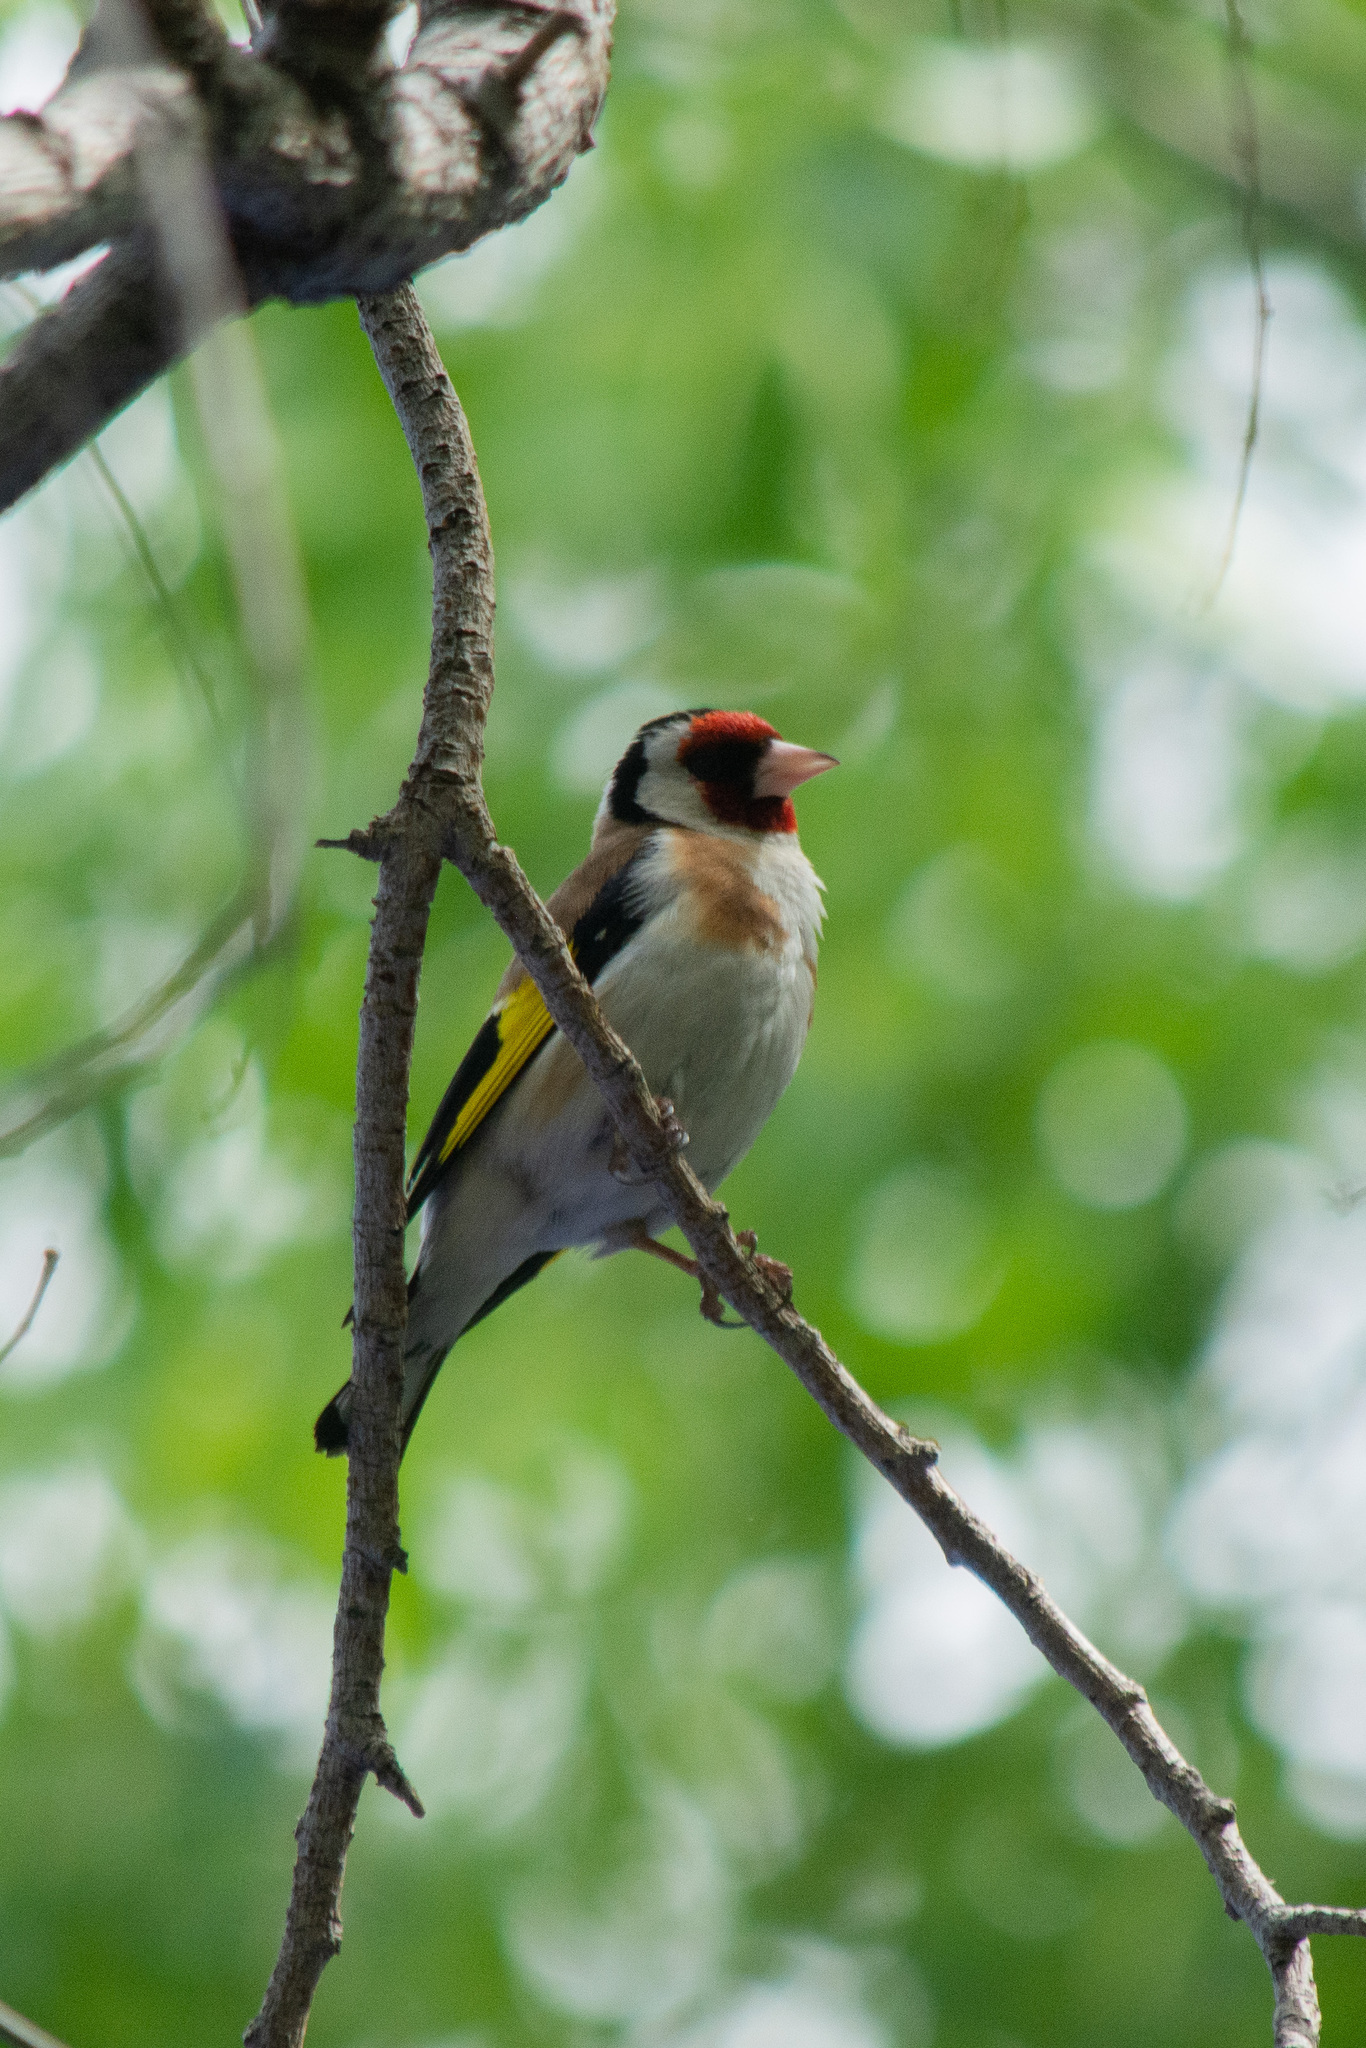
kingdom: Animalia
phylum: Chordata
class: Aves
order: Passeriformes
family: Fringillidae
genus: Carduelis
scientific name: Carduelis carduelis
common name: European goldfinch
